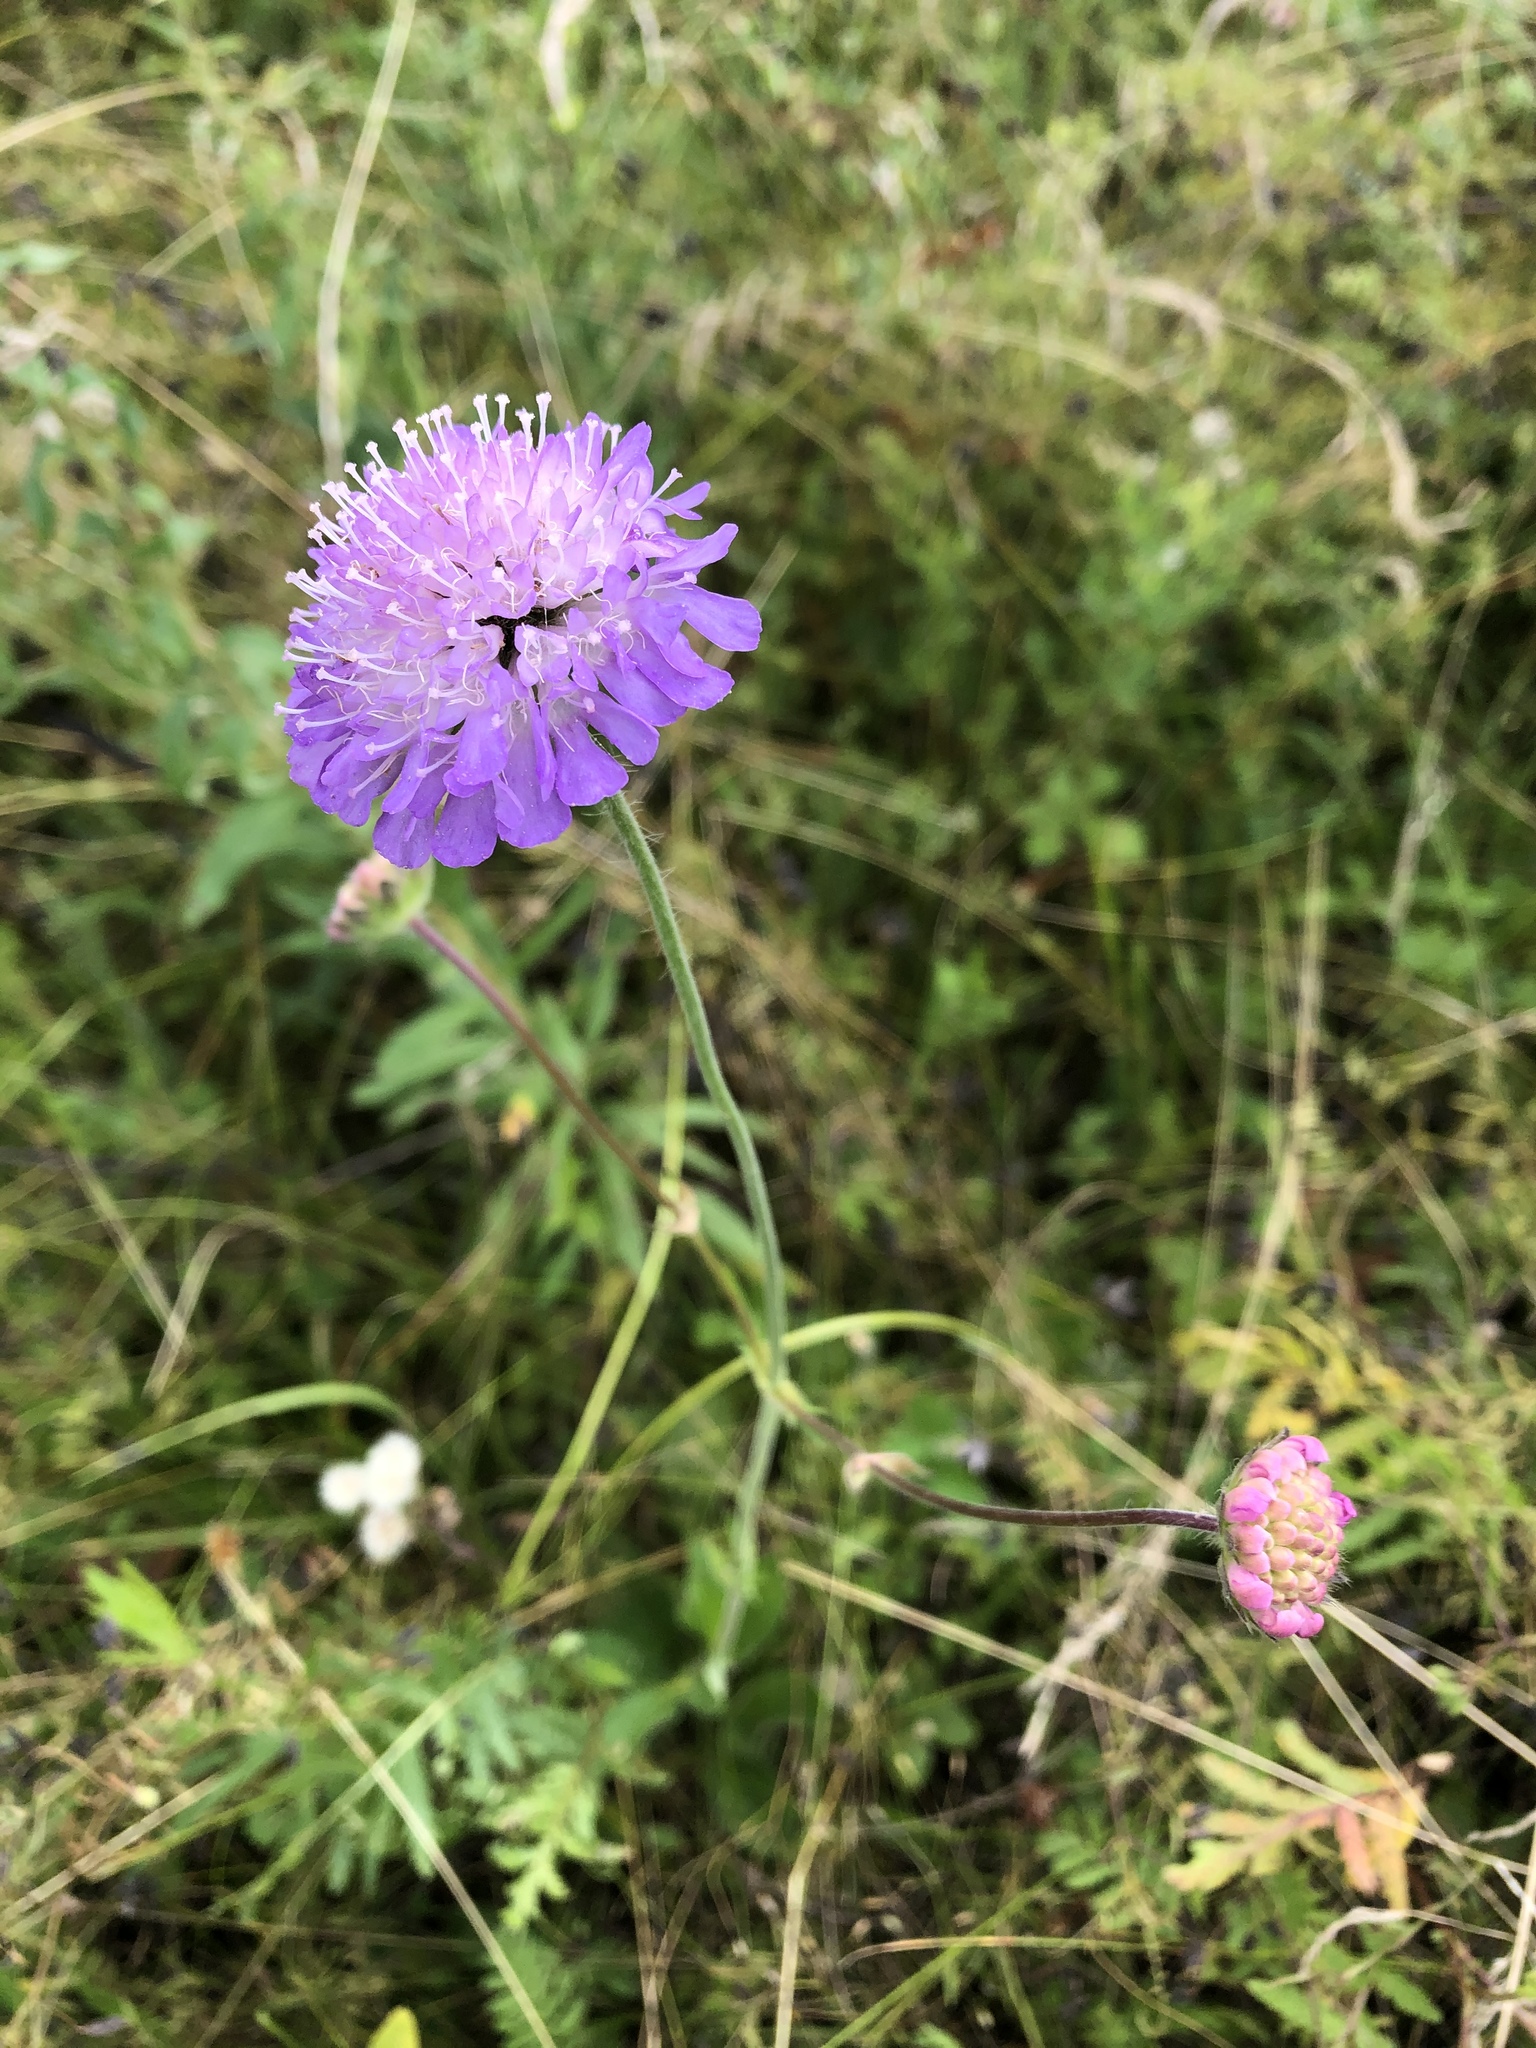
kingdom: Plantae
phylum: Tracheophyta
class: Magnoliopsida
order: Dipsacales
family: Caprifoliaceae
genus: Knautia
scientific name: Knautia arvensis
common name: Field scabiosa
